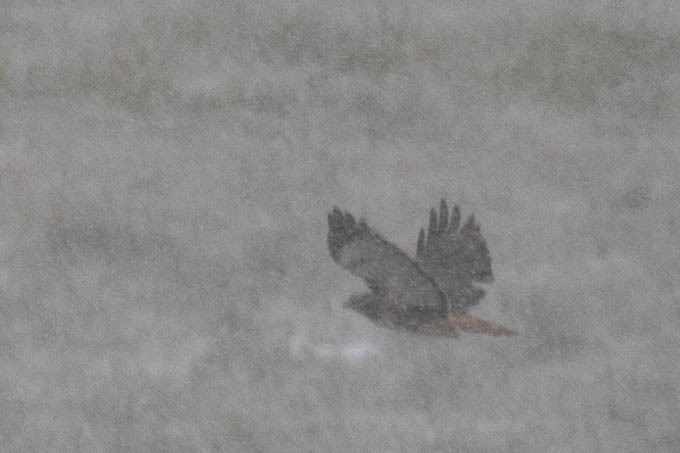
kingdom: Animalia
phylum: Chordata
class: Aves
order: Accipitriformes
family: Accipitridae
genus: Buteo
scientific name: Buteo jamaicensis
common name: Red-tailed hawk
